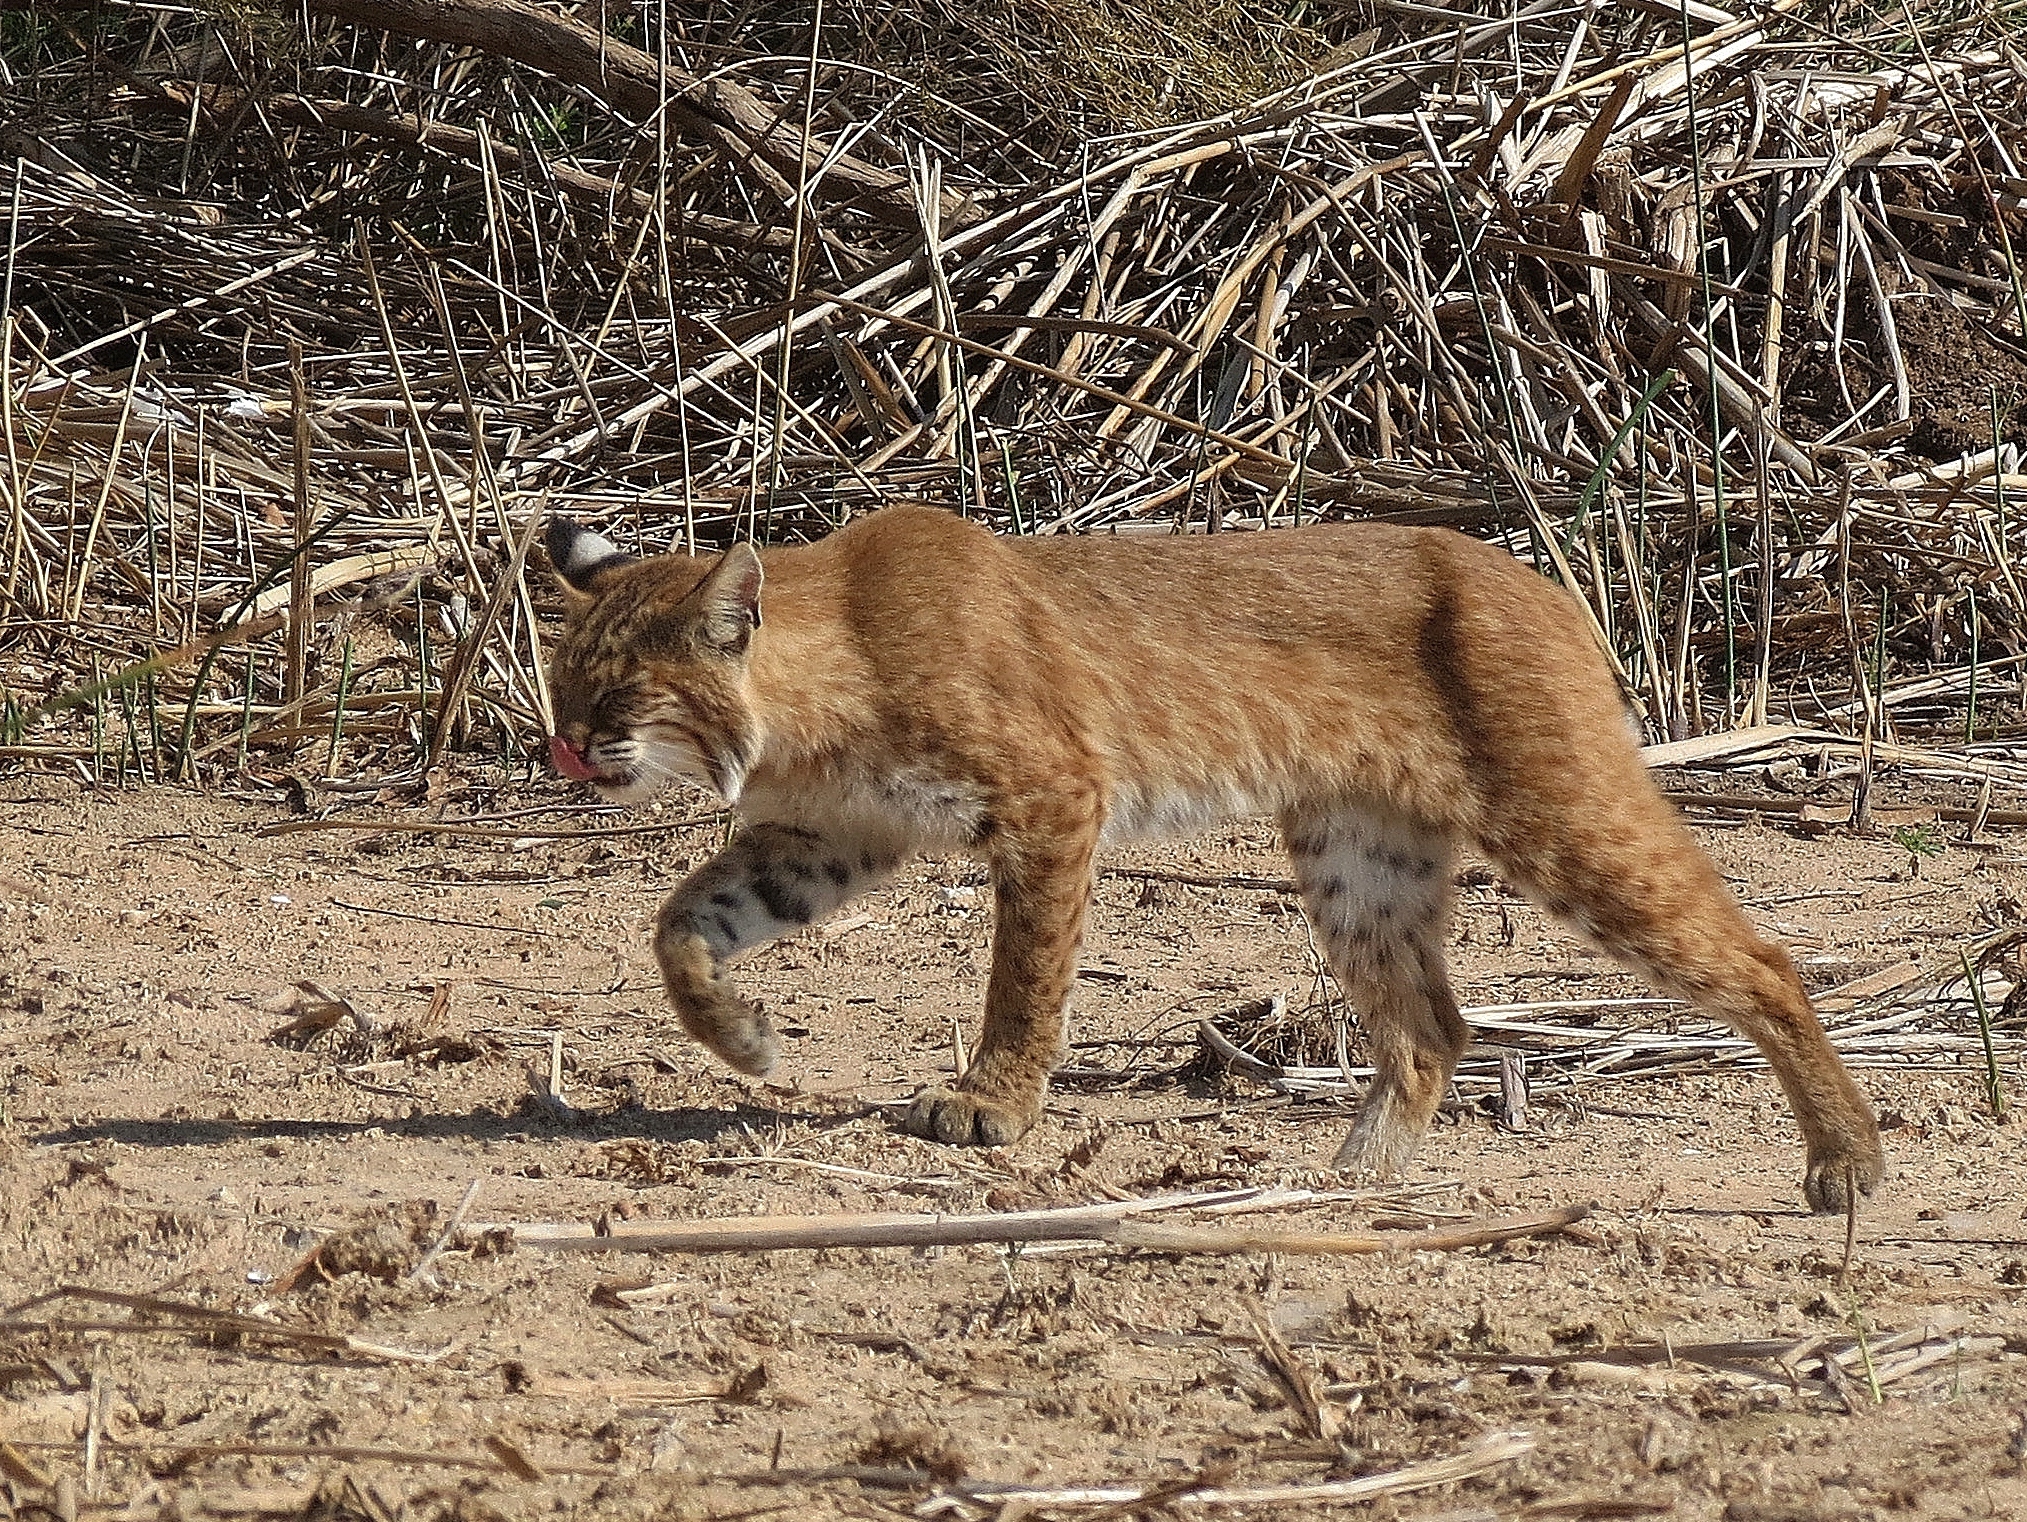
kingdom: Animalia
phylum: Chordata
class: Mammalia
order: Carnivora
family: Felidae
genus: Lynx
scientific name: Lynx rufus
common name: Bobcat
